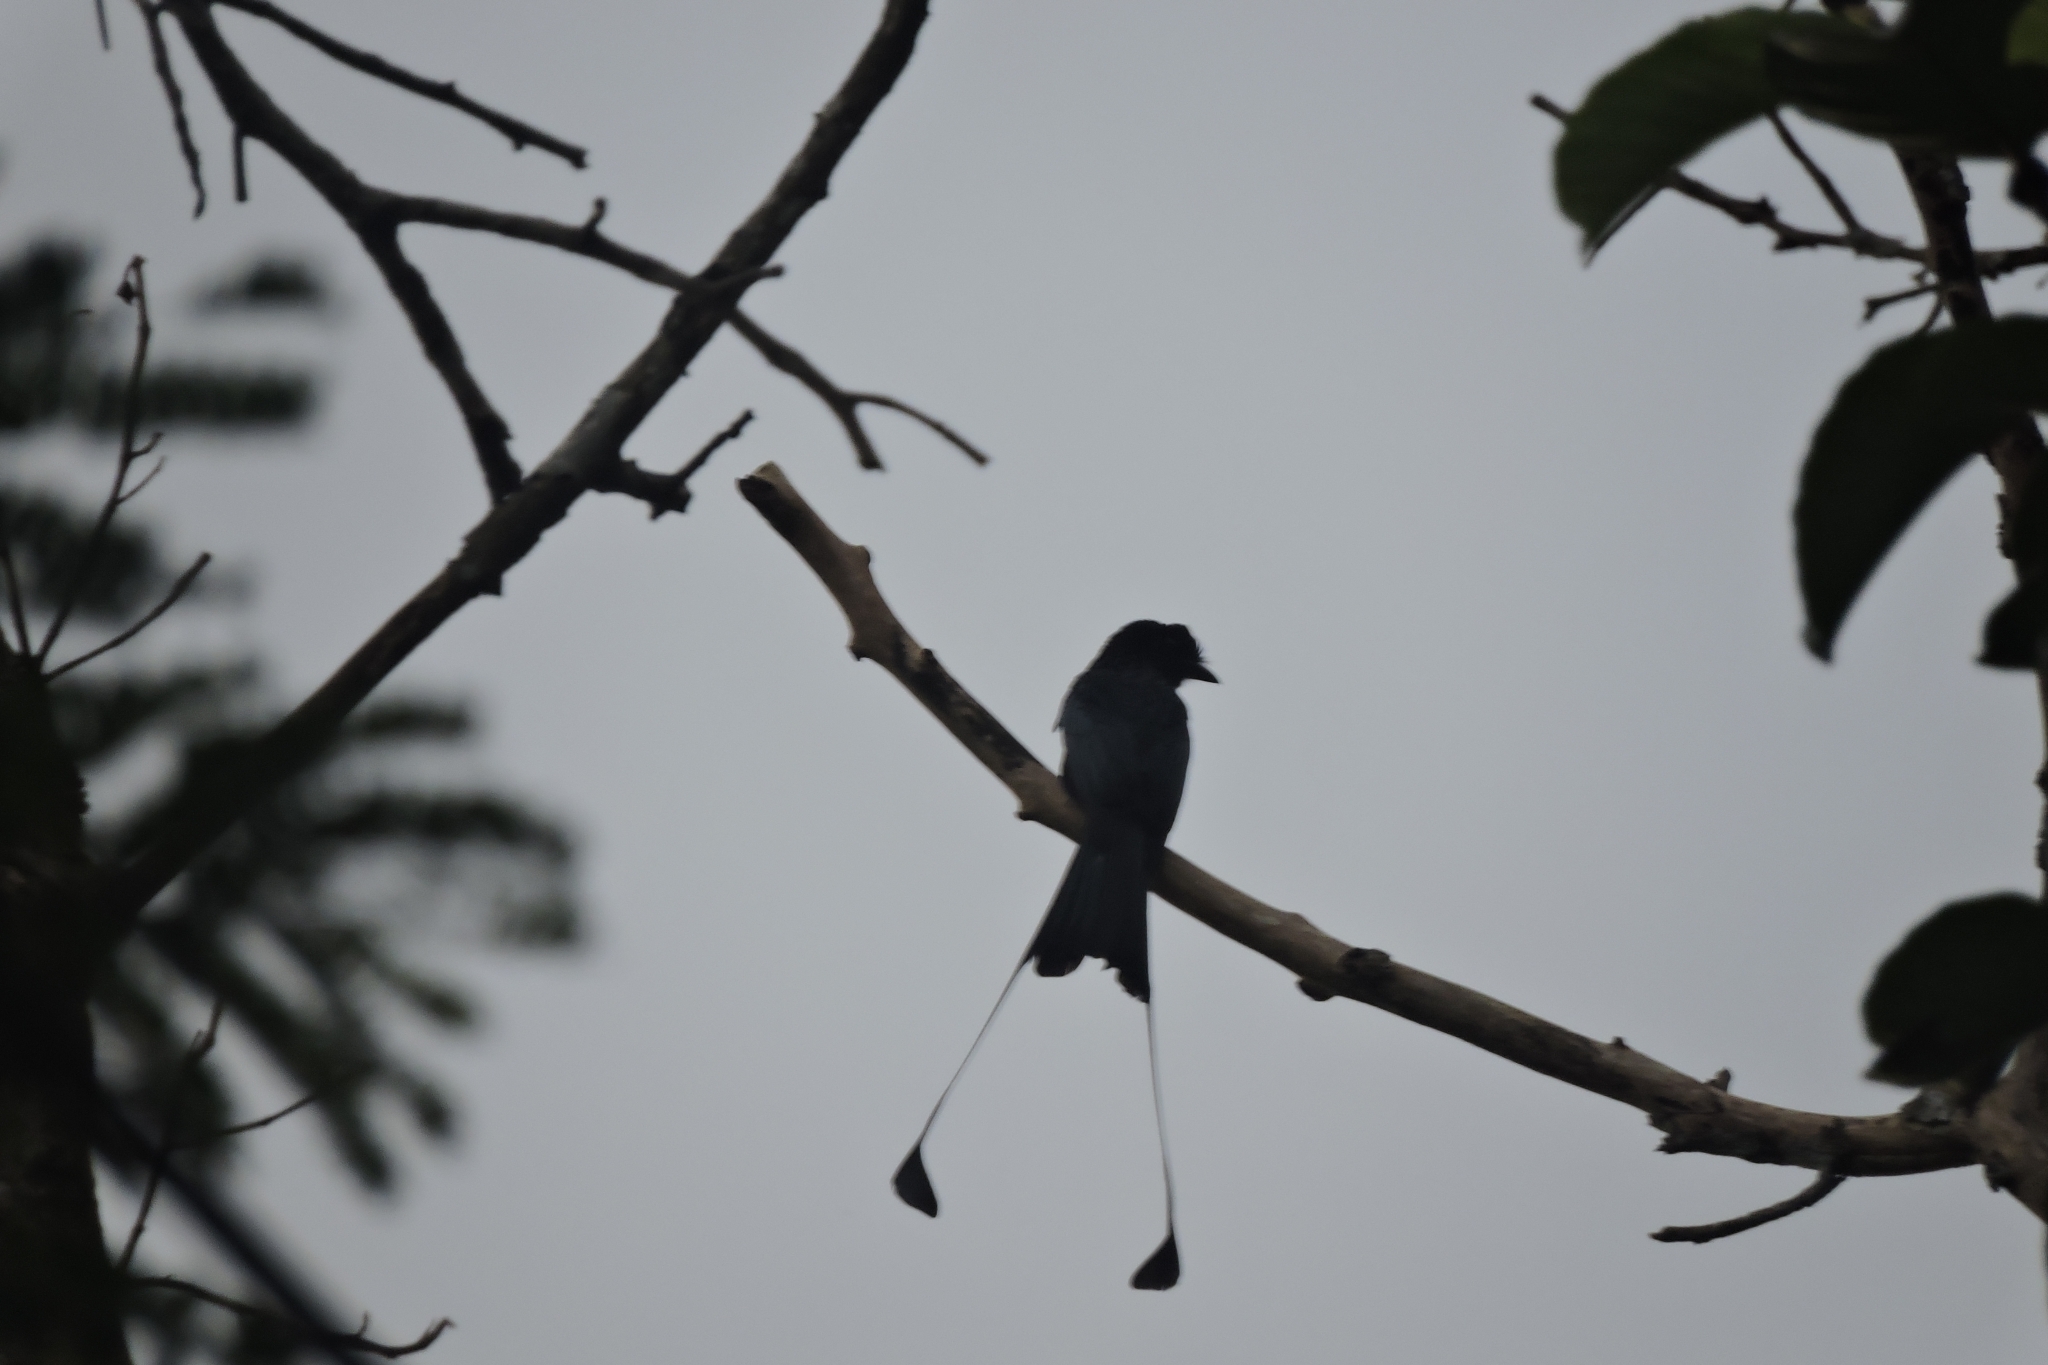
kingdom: Animalia
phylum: Chordata
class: Aves
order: Passeriformes
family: Dicruridae
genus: Dicrurus
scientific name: Dicrurus paradiseus
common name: Greater racket-tailed drongo
